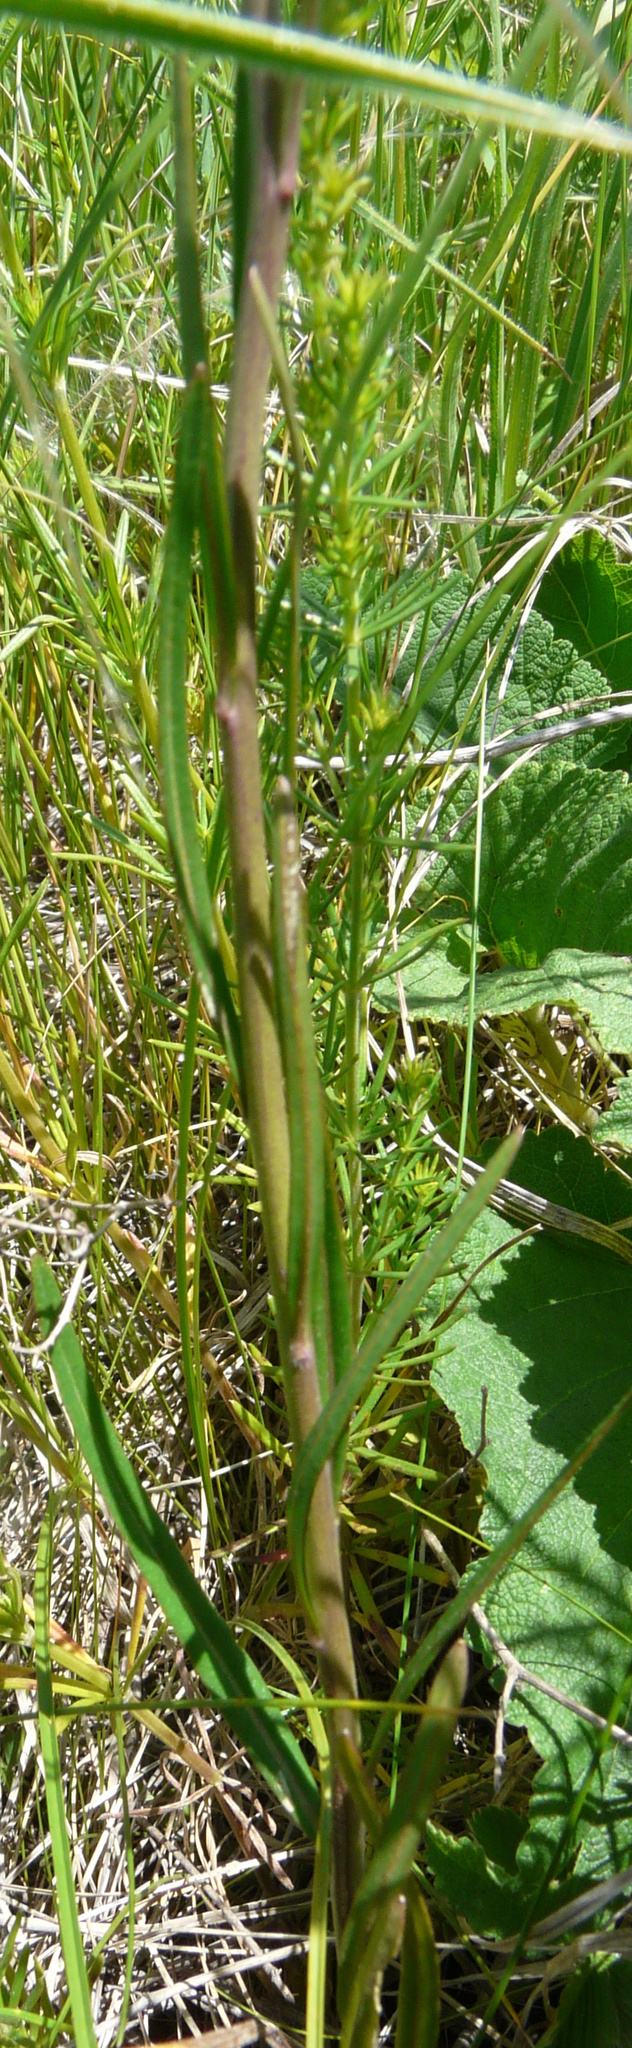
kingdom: Plantae
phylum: Tracheophyta
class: Magnoliopsida
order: Brassicales
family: Brassicaceae
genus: Sisymbrium
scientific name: Sisymbrium polymorphum
